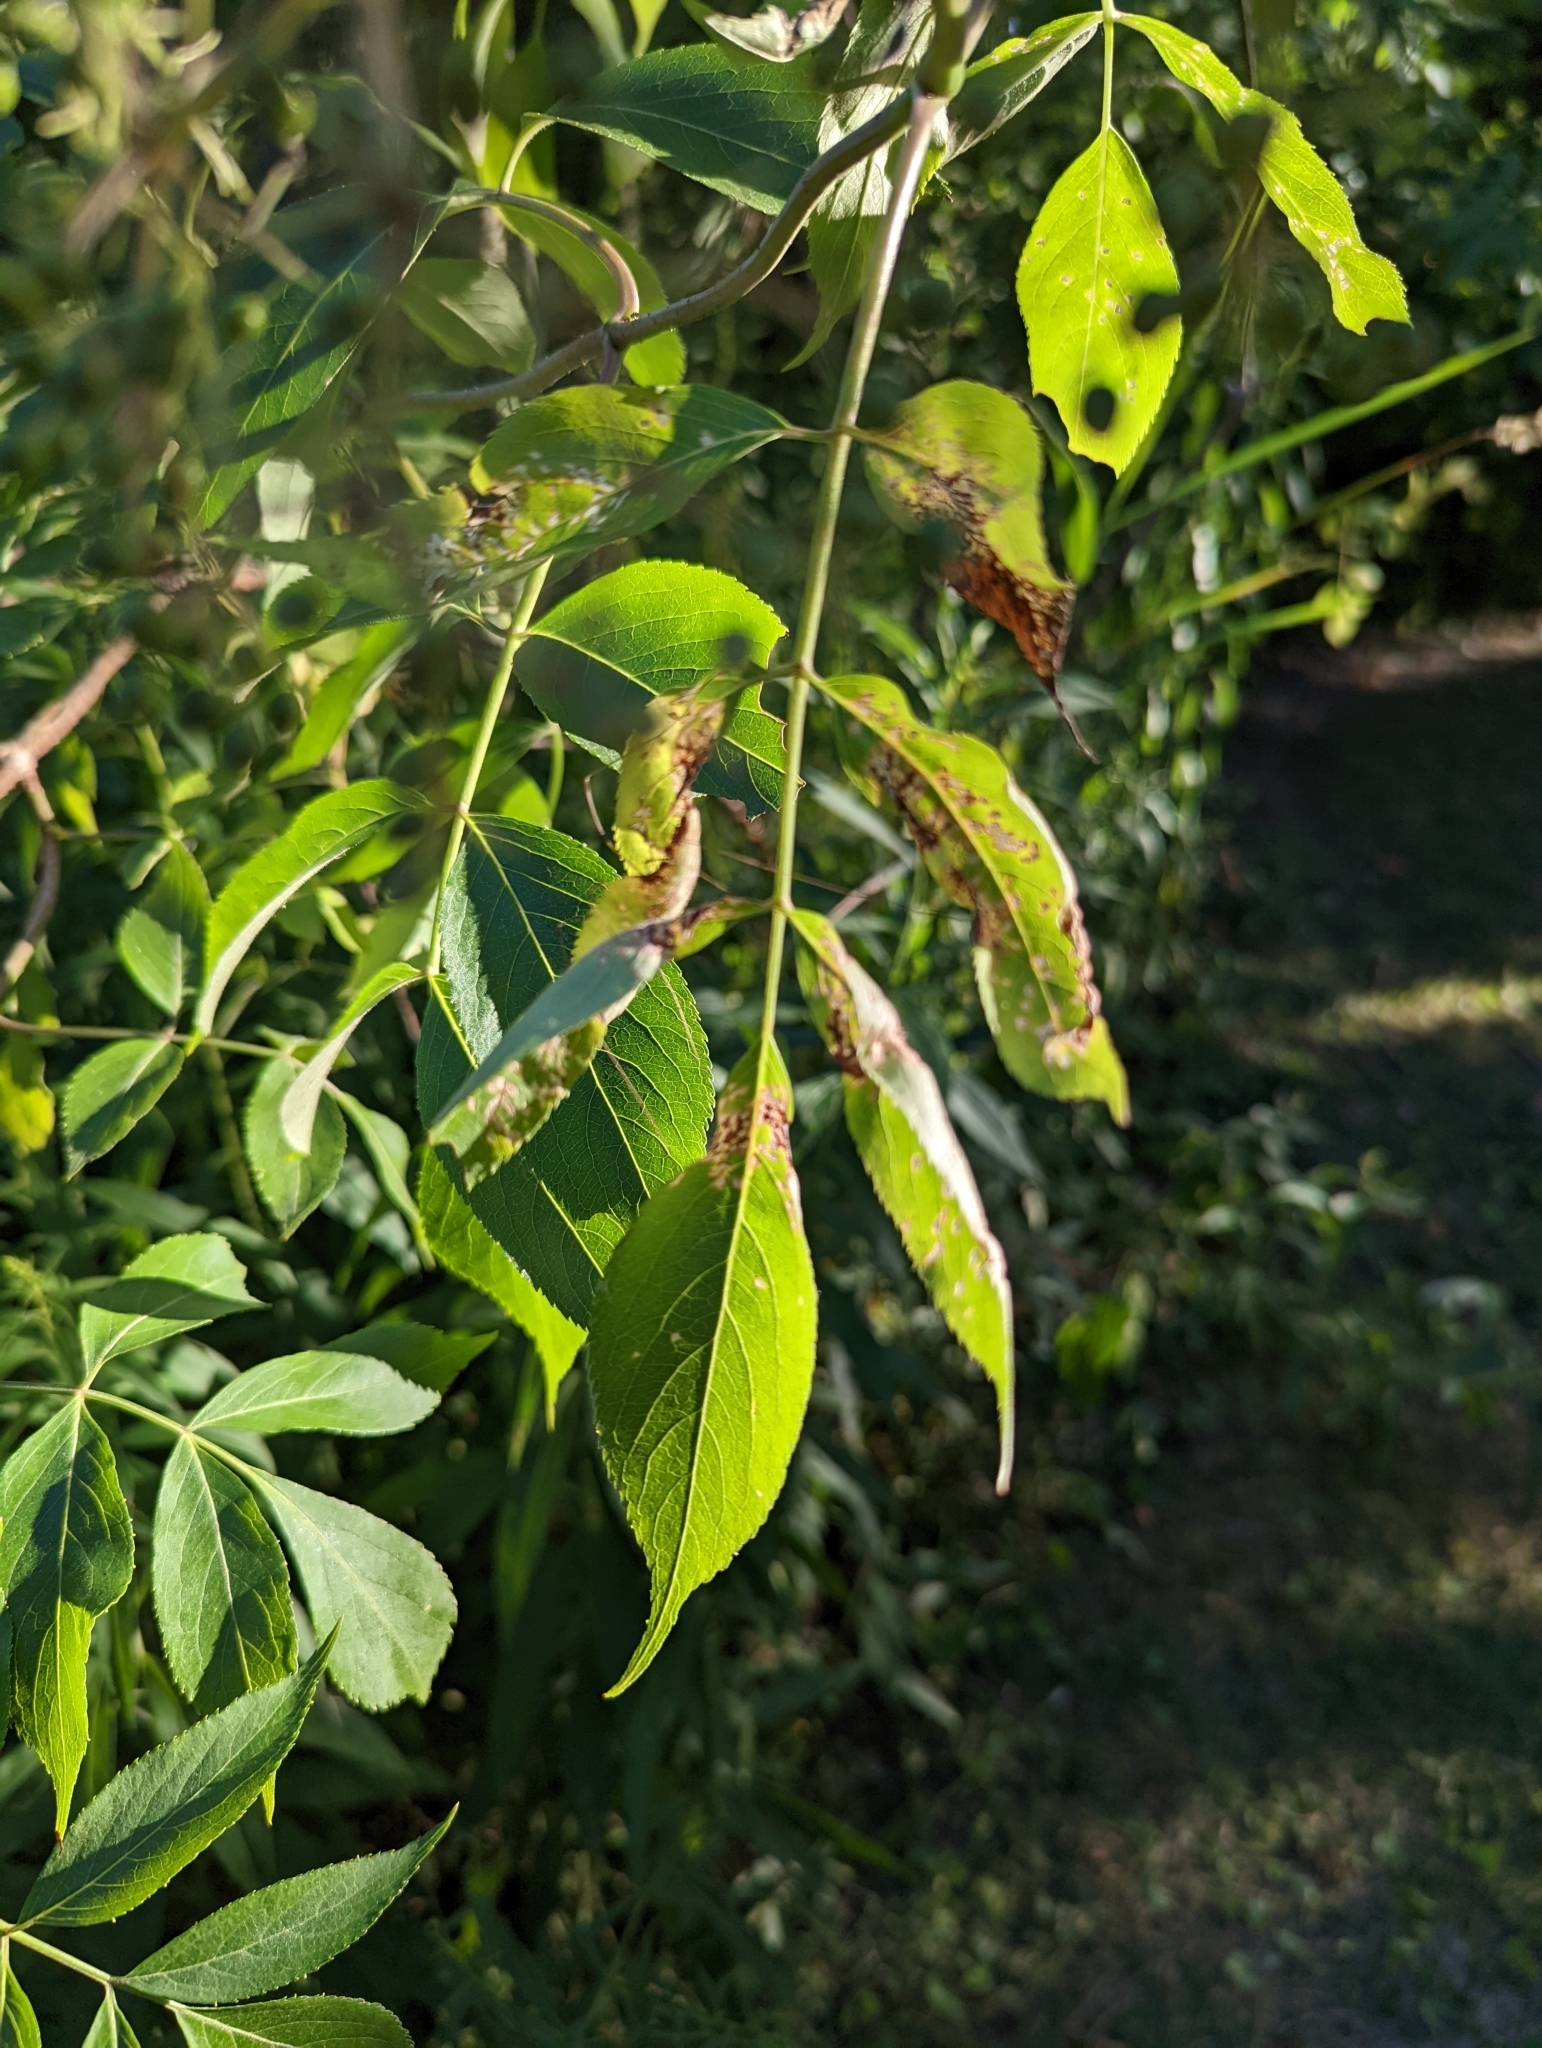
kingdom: Plantae
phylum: Tracheophyta
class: Magnoliopsida
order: Dipsacales
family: Viburnaceae
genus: Sambucus
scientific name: Sambucus canadensis
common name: American elder
